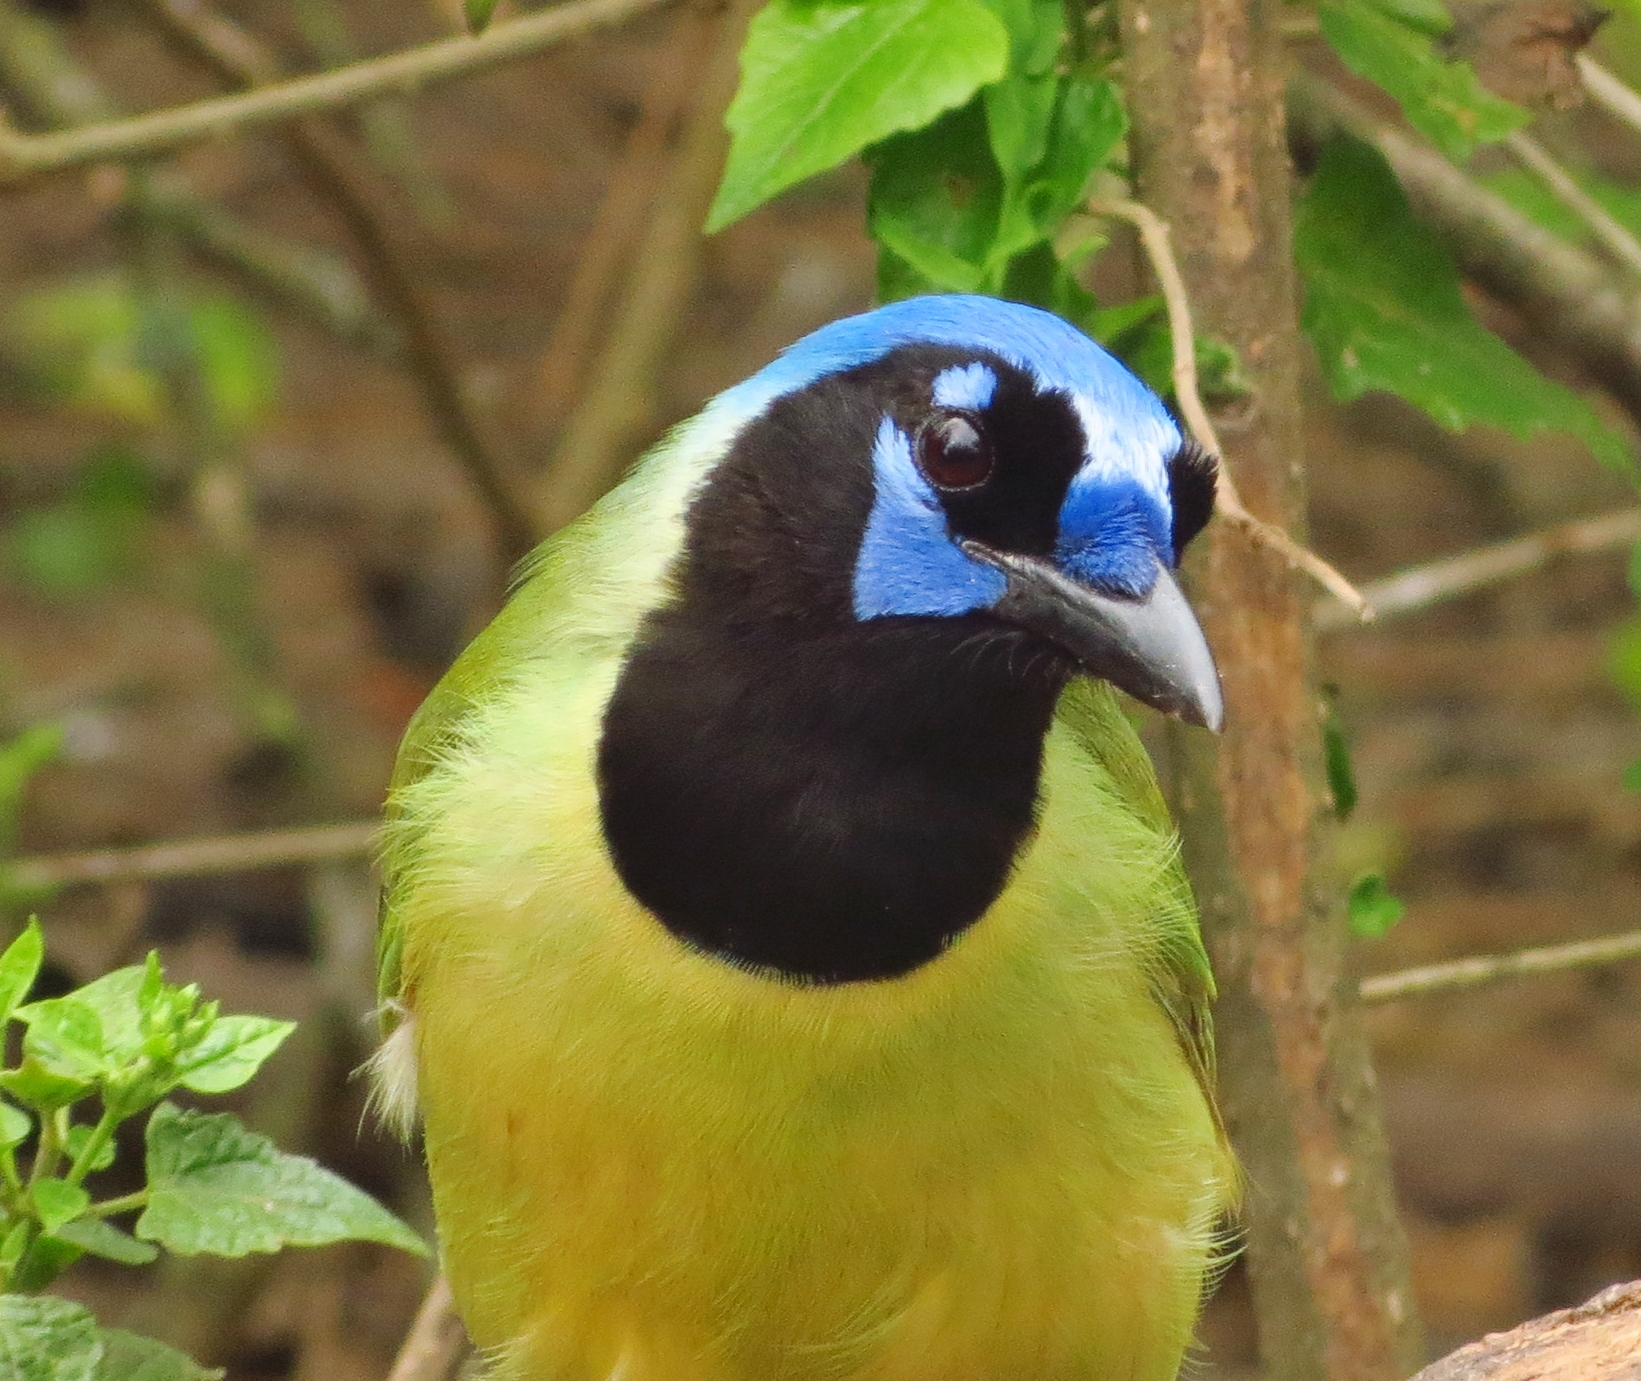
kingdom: Animalia
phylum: Chordata
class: Aves
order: Passeriformes
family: Corvidae
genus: Cyanocorax
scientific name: Cyanocorax yncas
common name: Green jay
